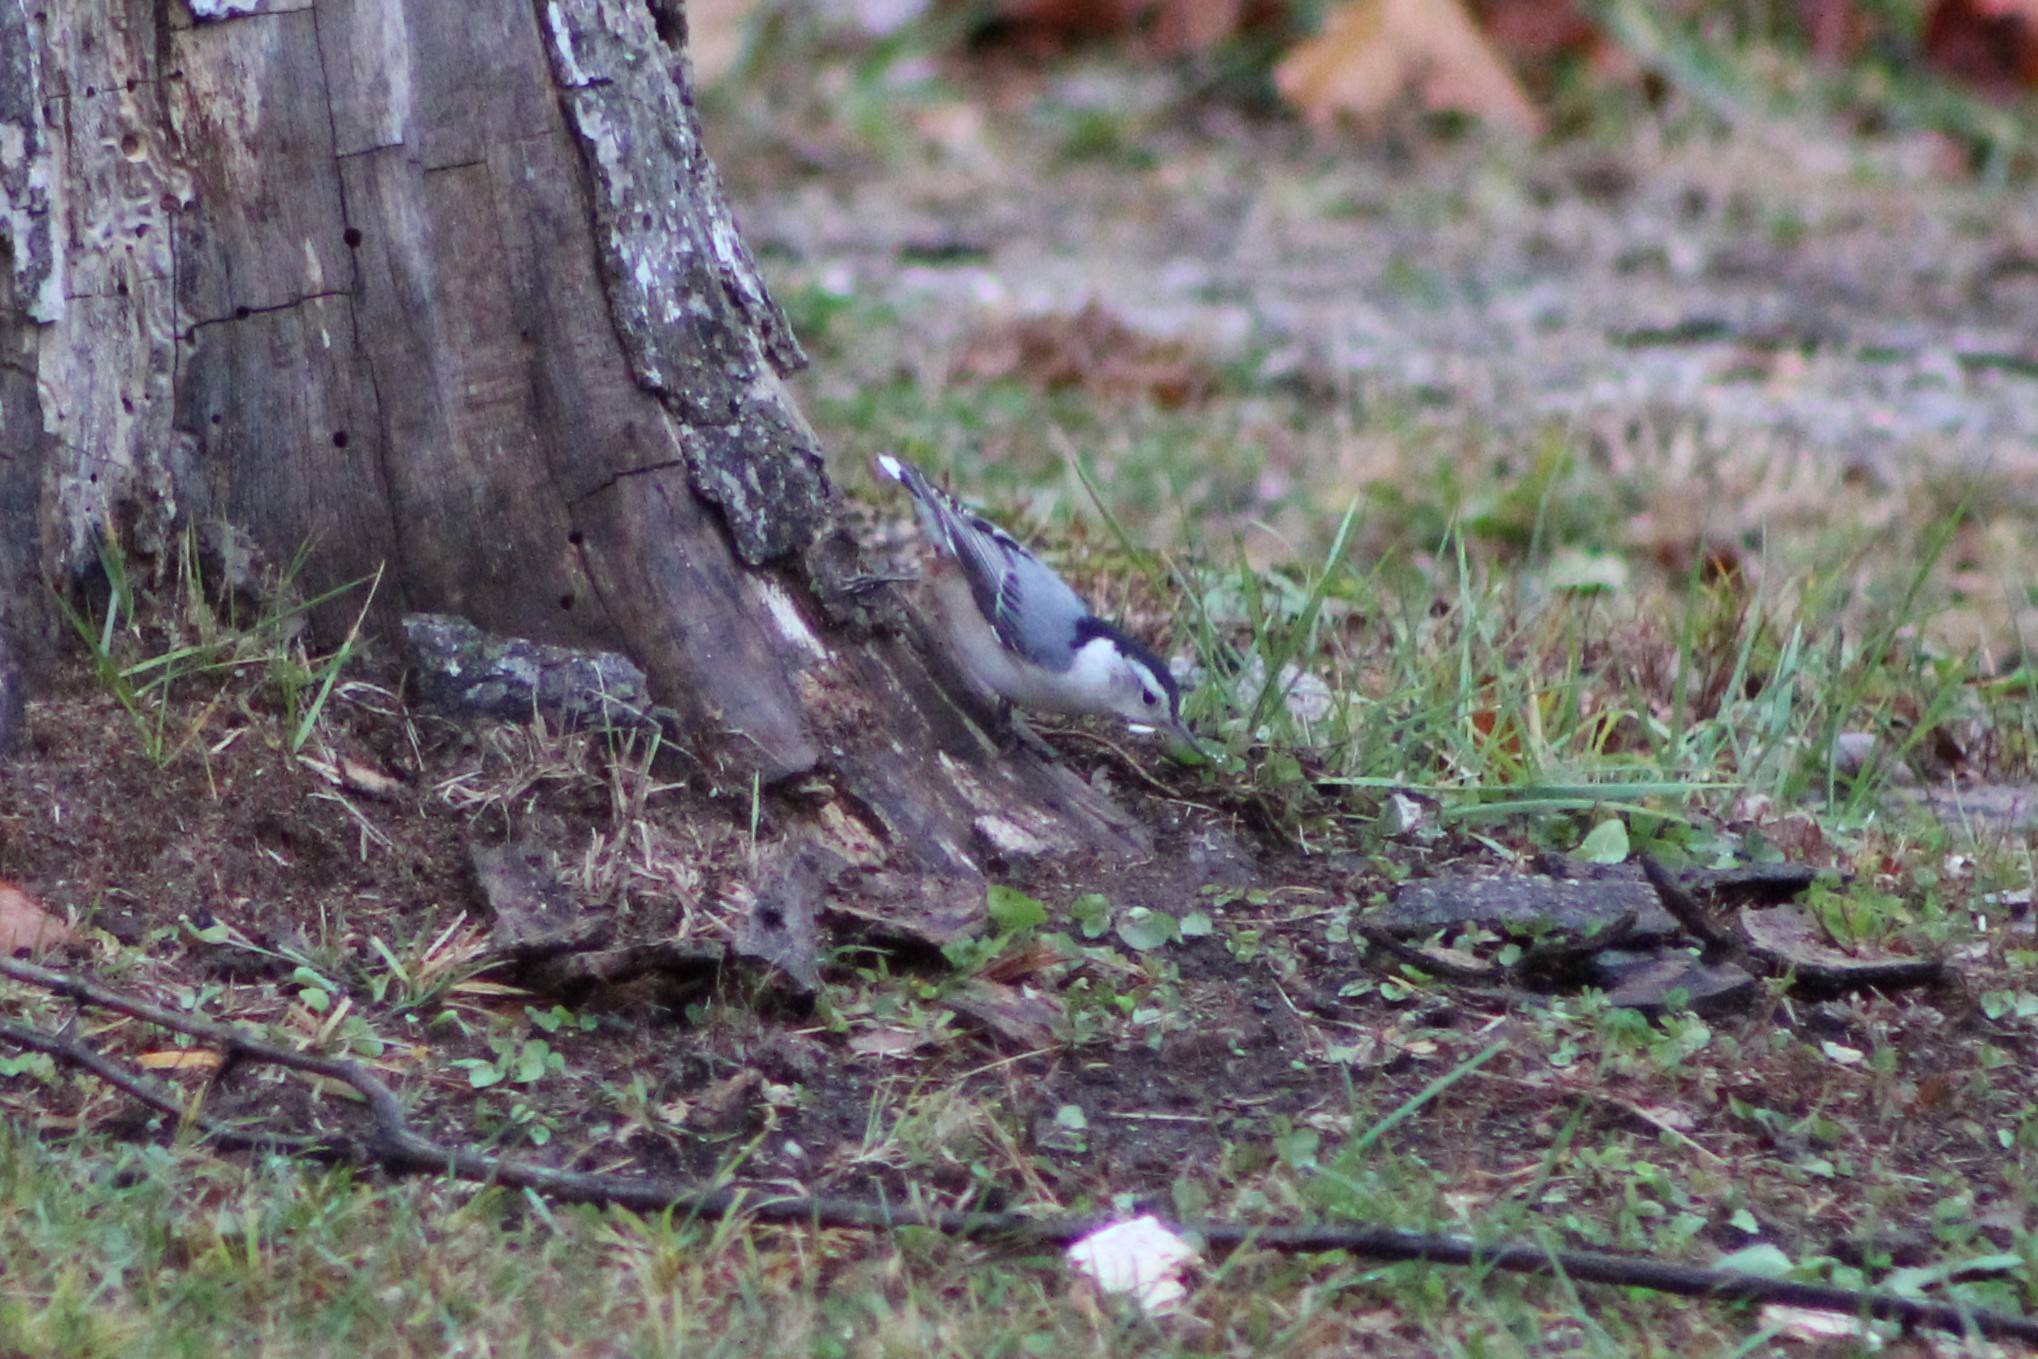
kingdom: Animalia
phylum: Chordata
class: Aves
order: Passeriformes
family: Sittidae
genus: Sitta
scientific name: Sitta carolinensis
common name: White-breasted nuthatch
